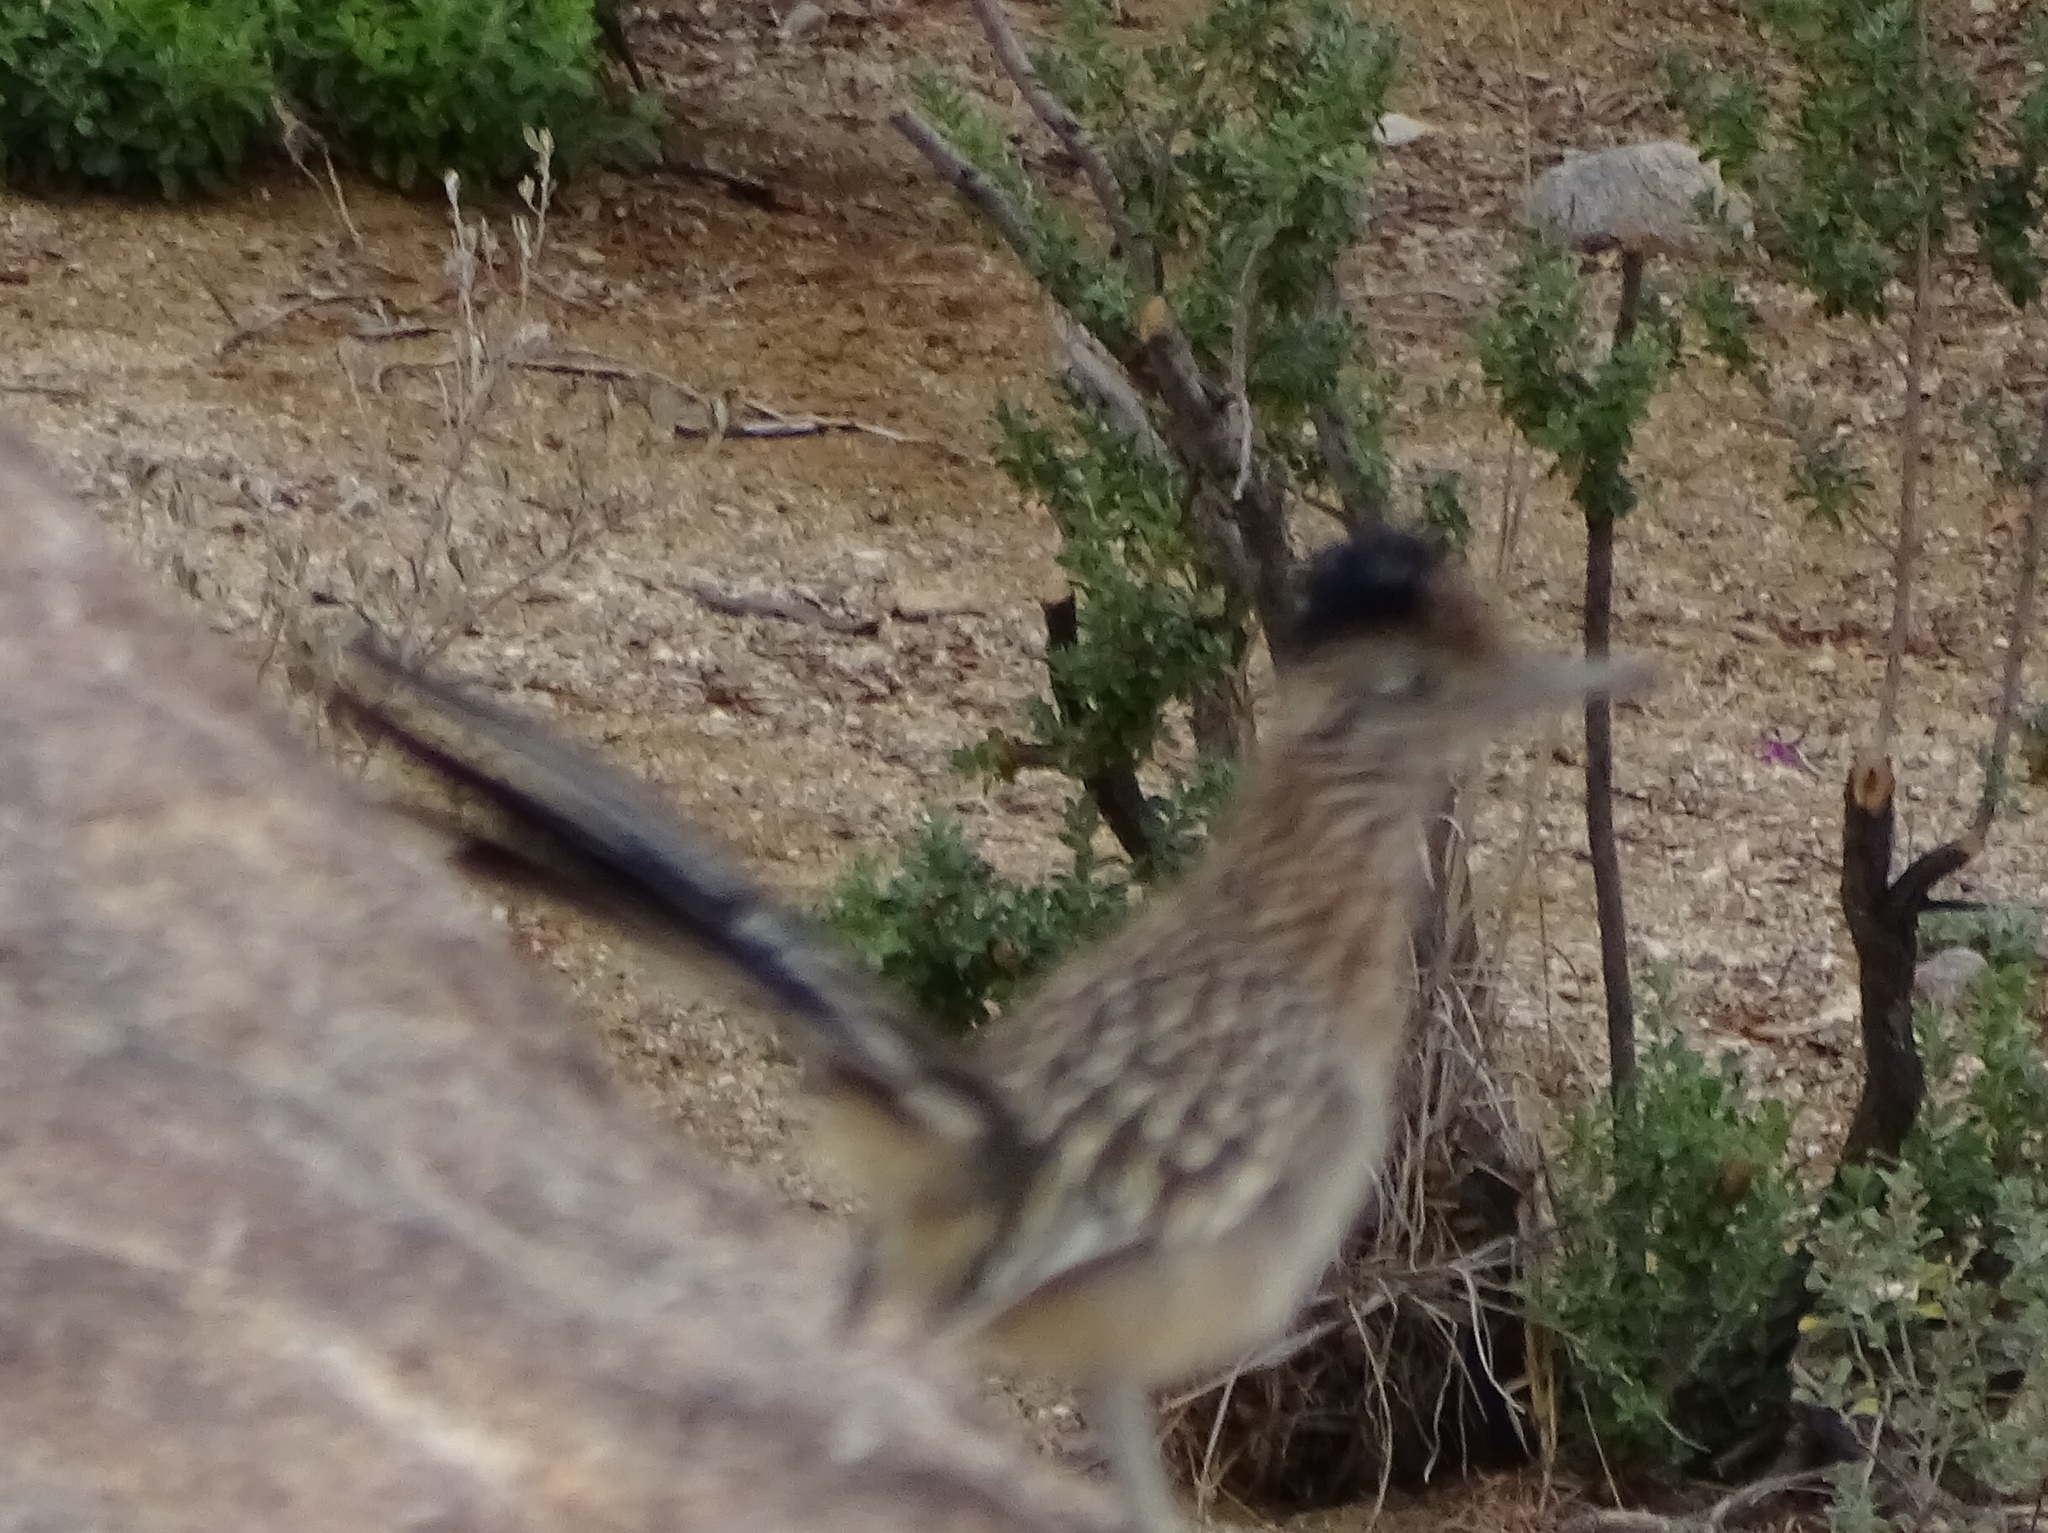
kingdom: Animalia
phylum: Chordata
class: Aves
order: Cuculiformes
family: Cuculidae
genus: Geococcyx
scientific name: Geococcyx californianus
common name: Greater roadrunner
